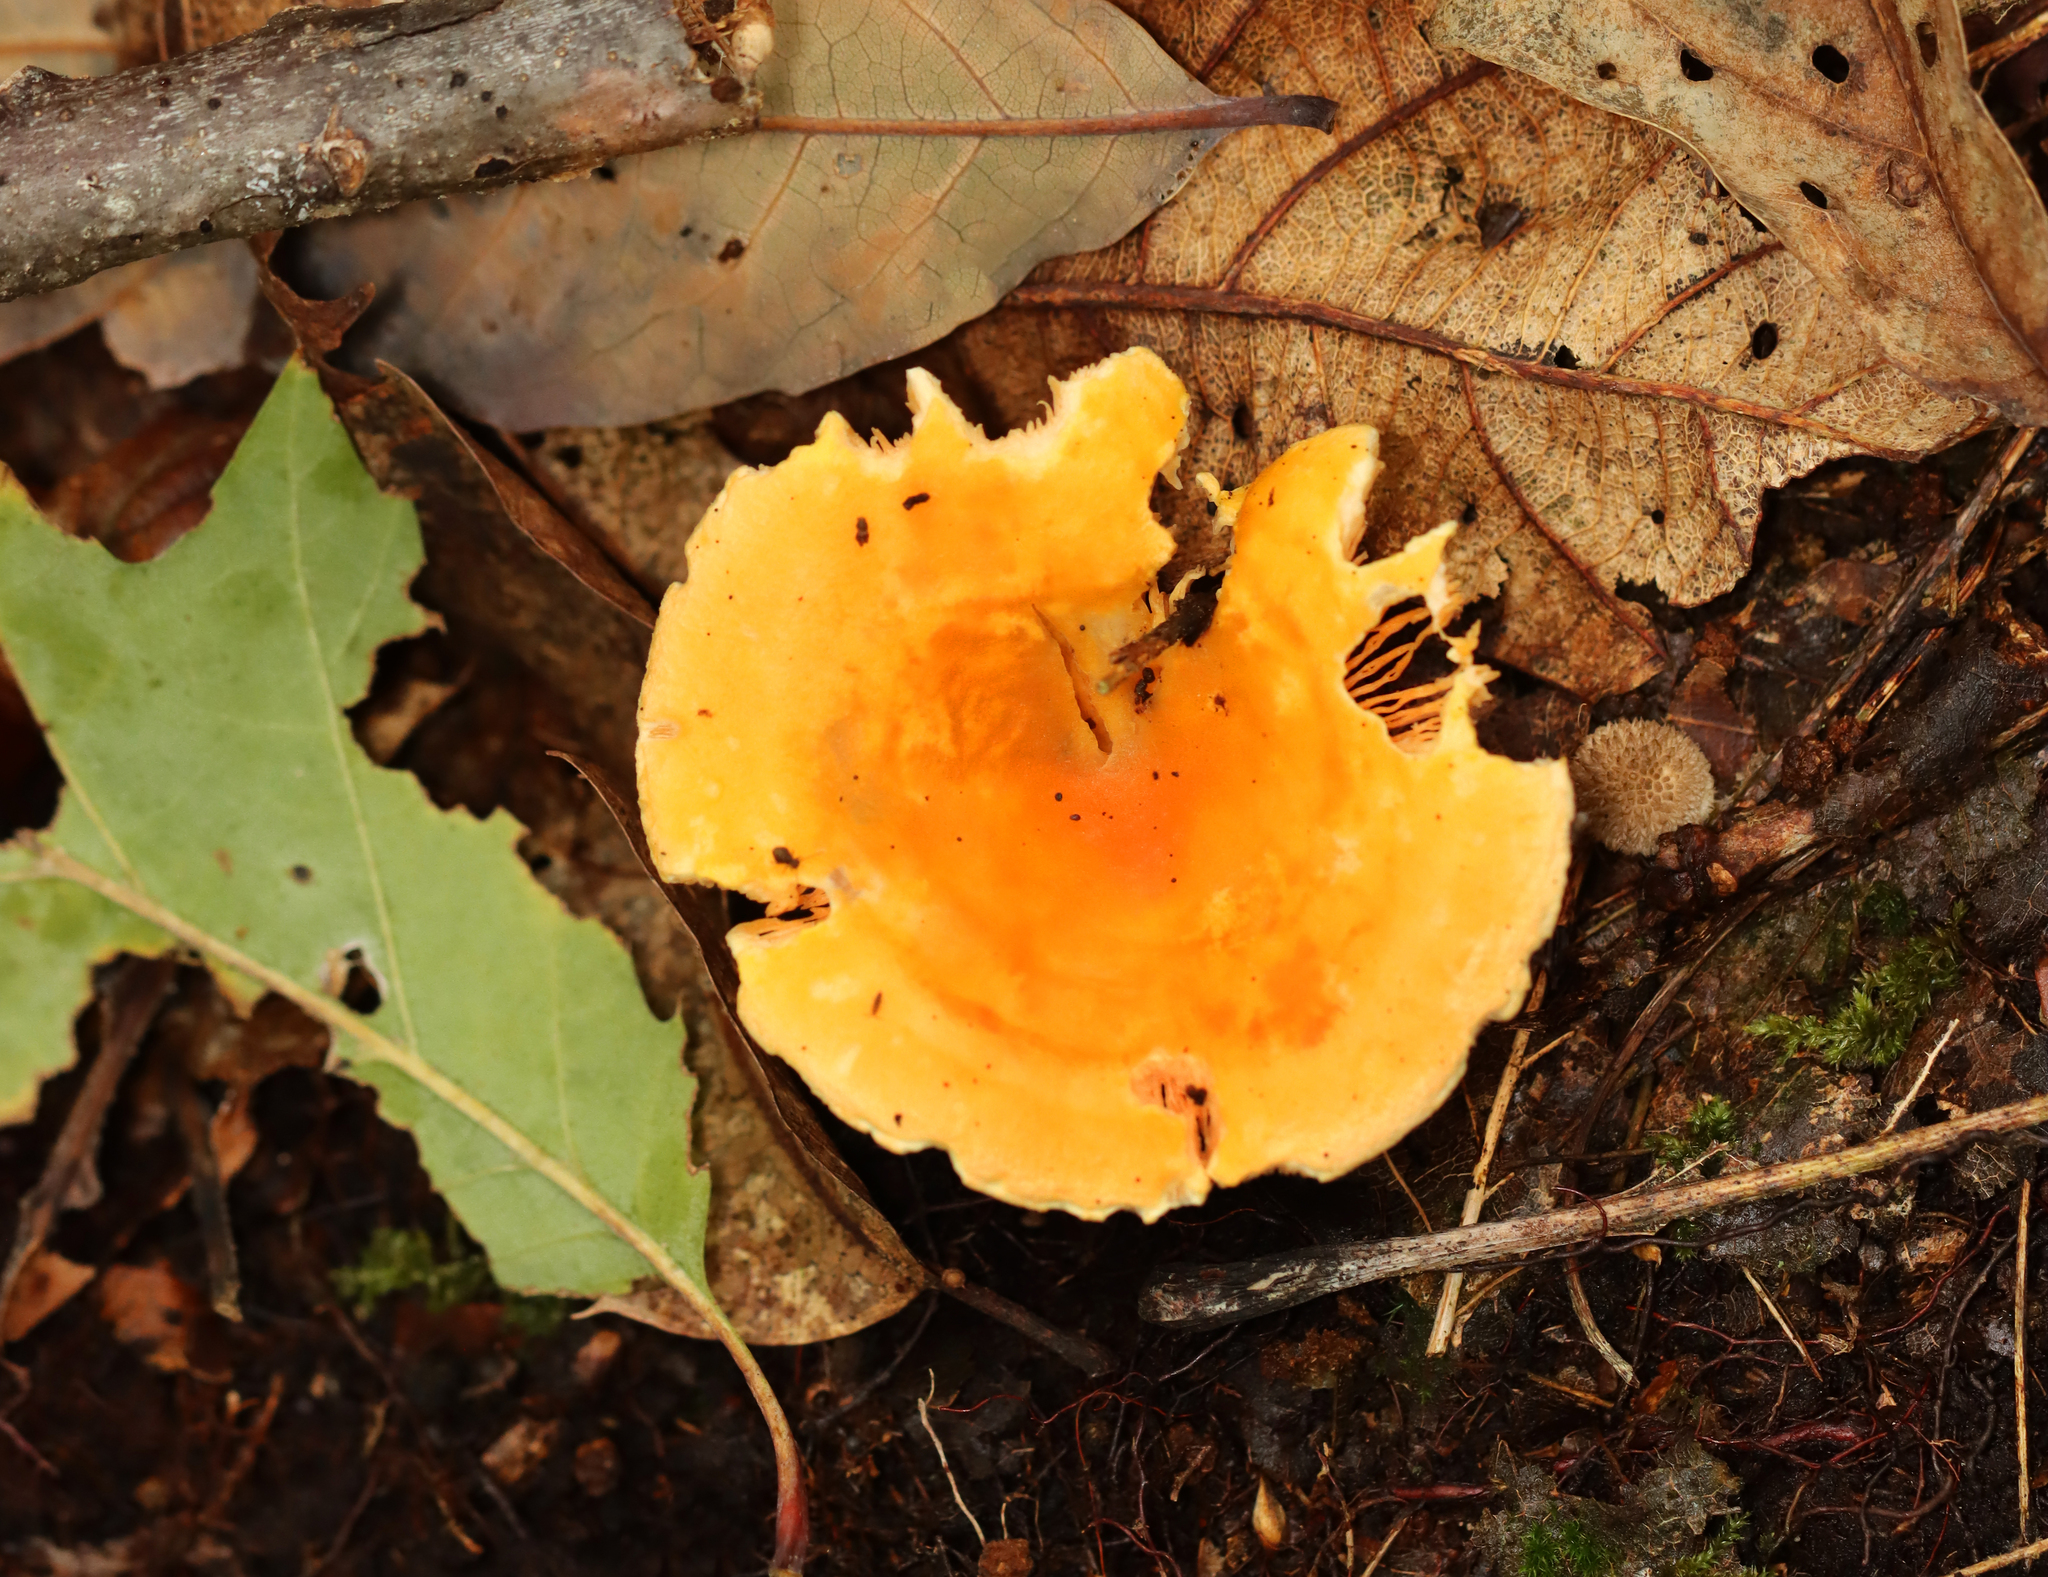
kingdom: Fungi
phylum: Basidiomycota
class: Agaricomycetes
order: Boletales
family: Hygrophoropsidaceae
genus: Hygrophoropsis
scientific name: Hygrophoropsis aurantiaca
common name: False chanterelle
